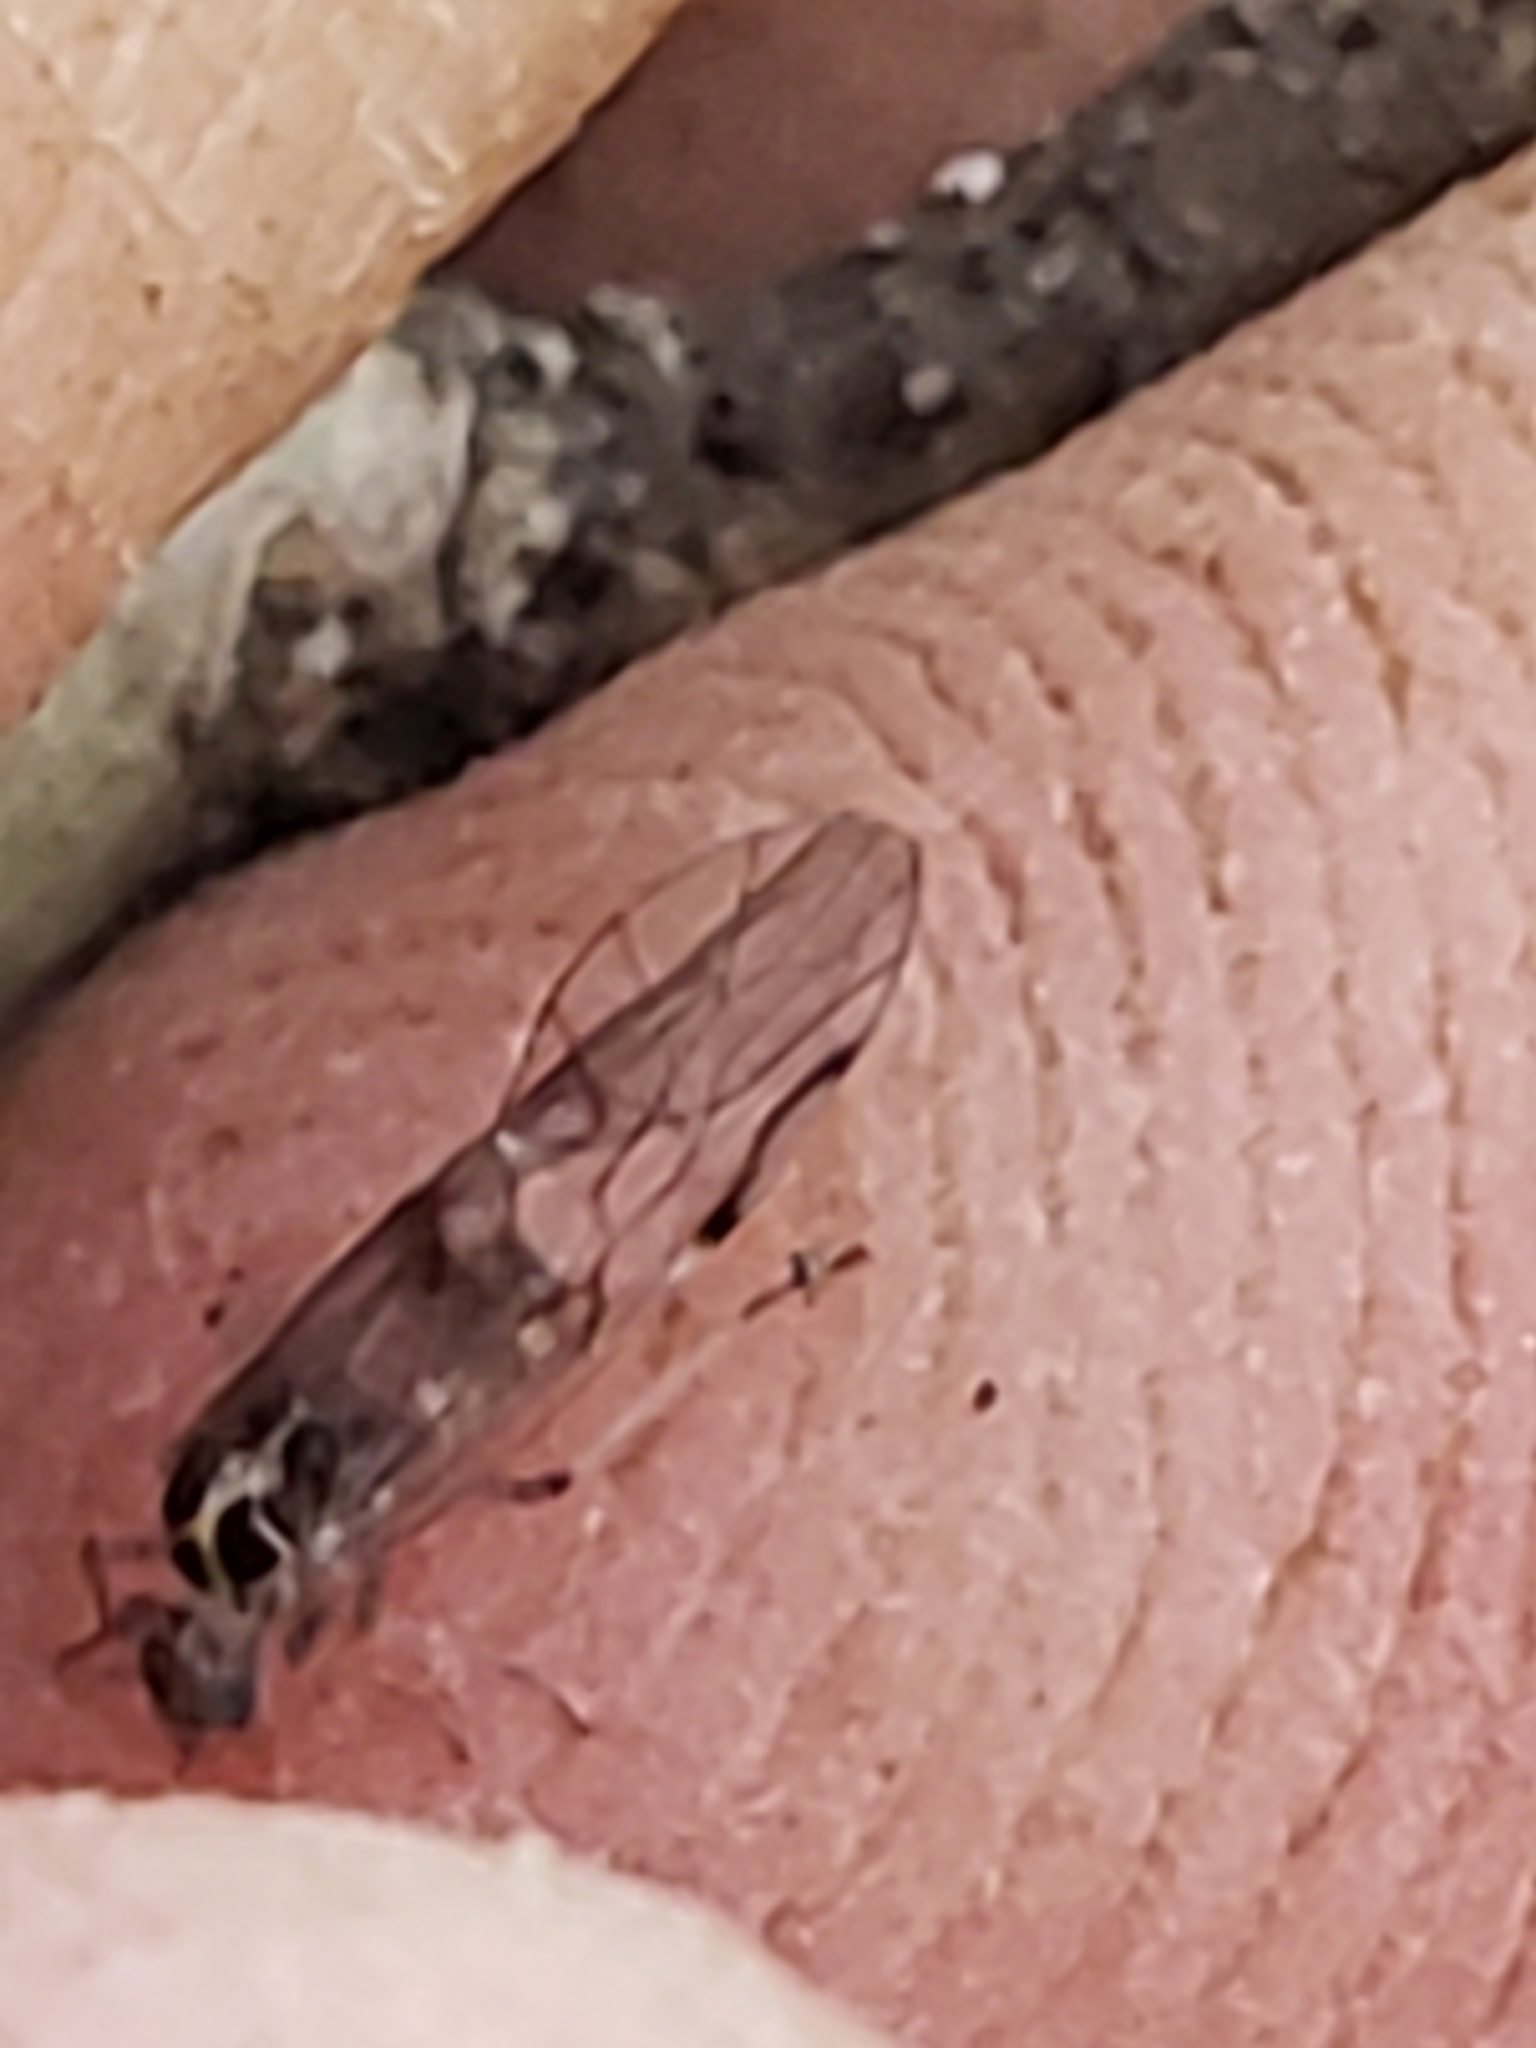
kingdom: Animalia
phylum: Arthropoda
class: Insecta
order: Psocodea
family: Dasydemellidae
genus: Teliapsocus
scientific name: Teliapsocus conterminus
